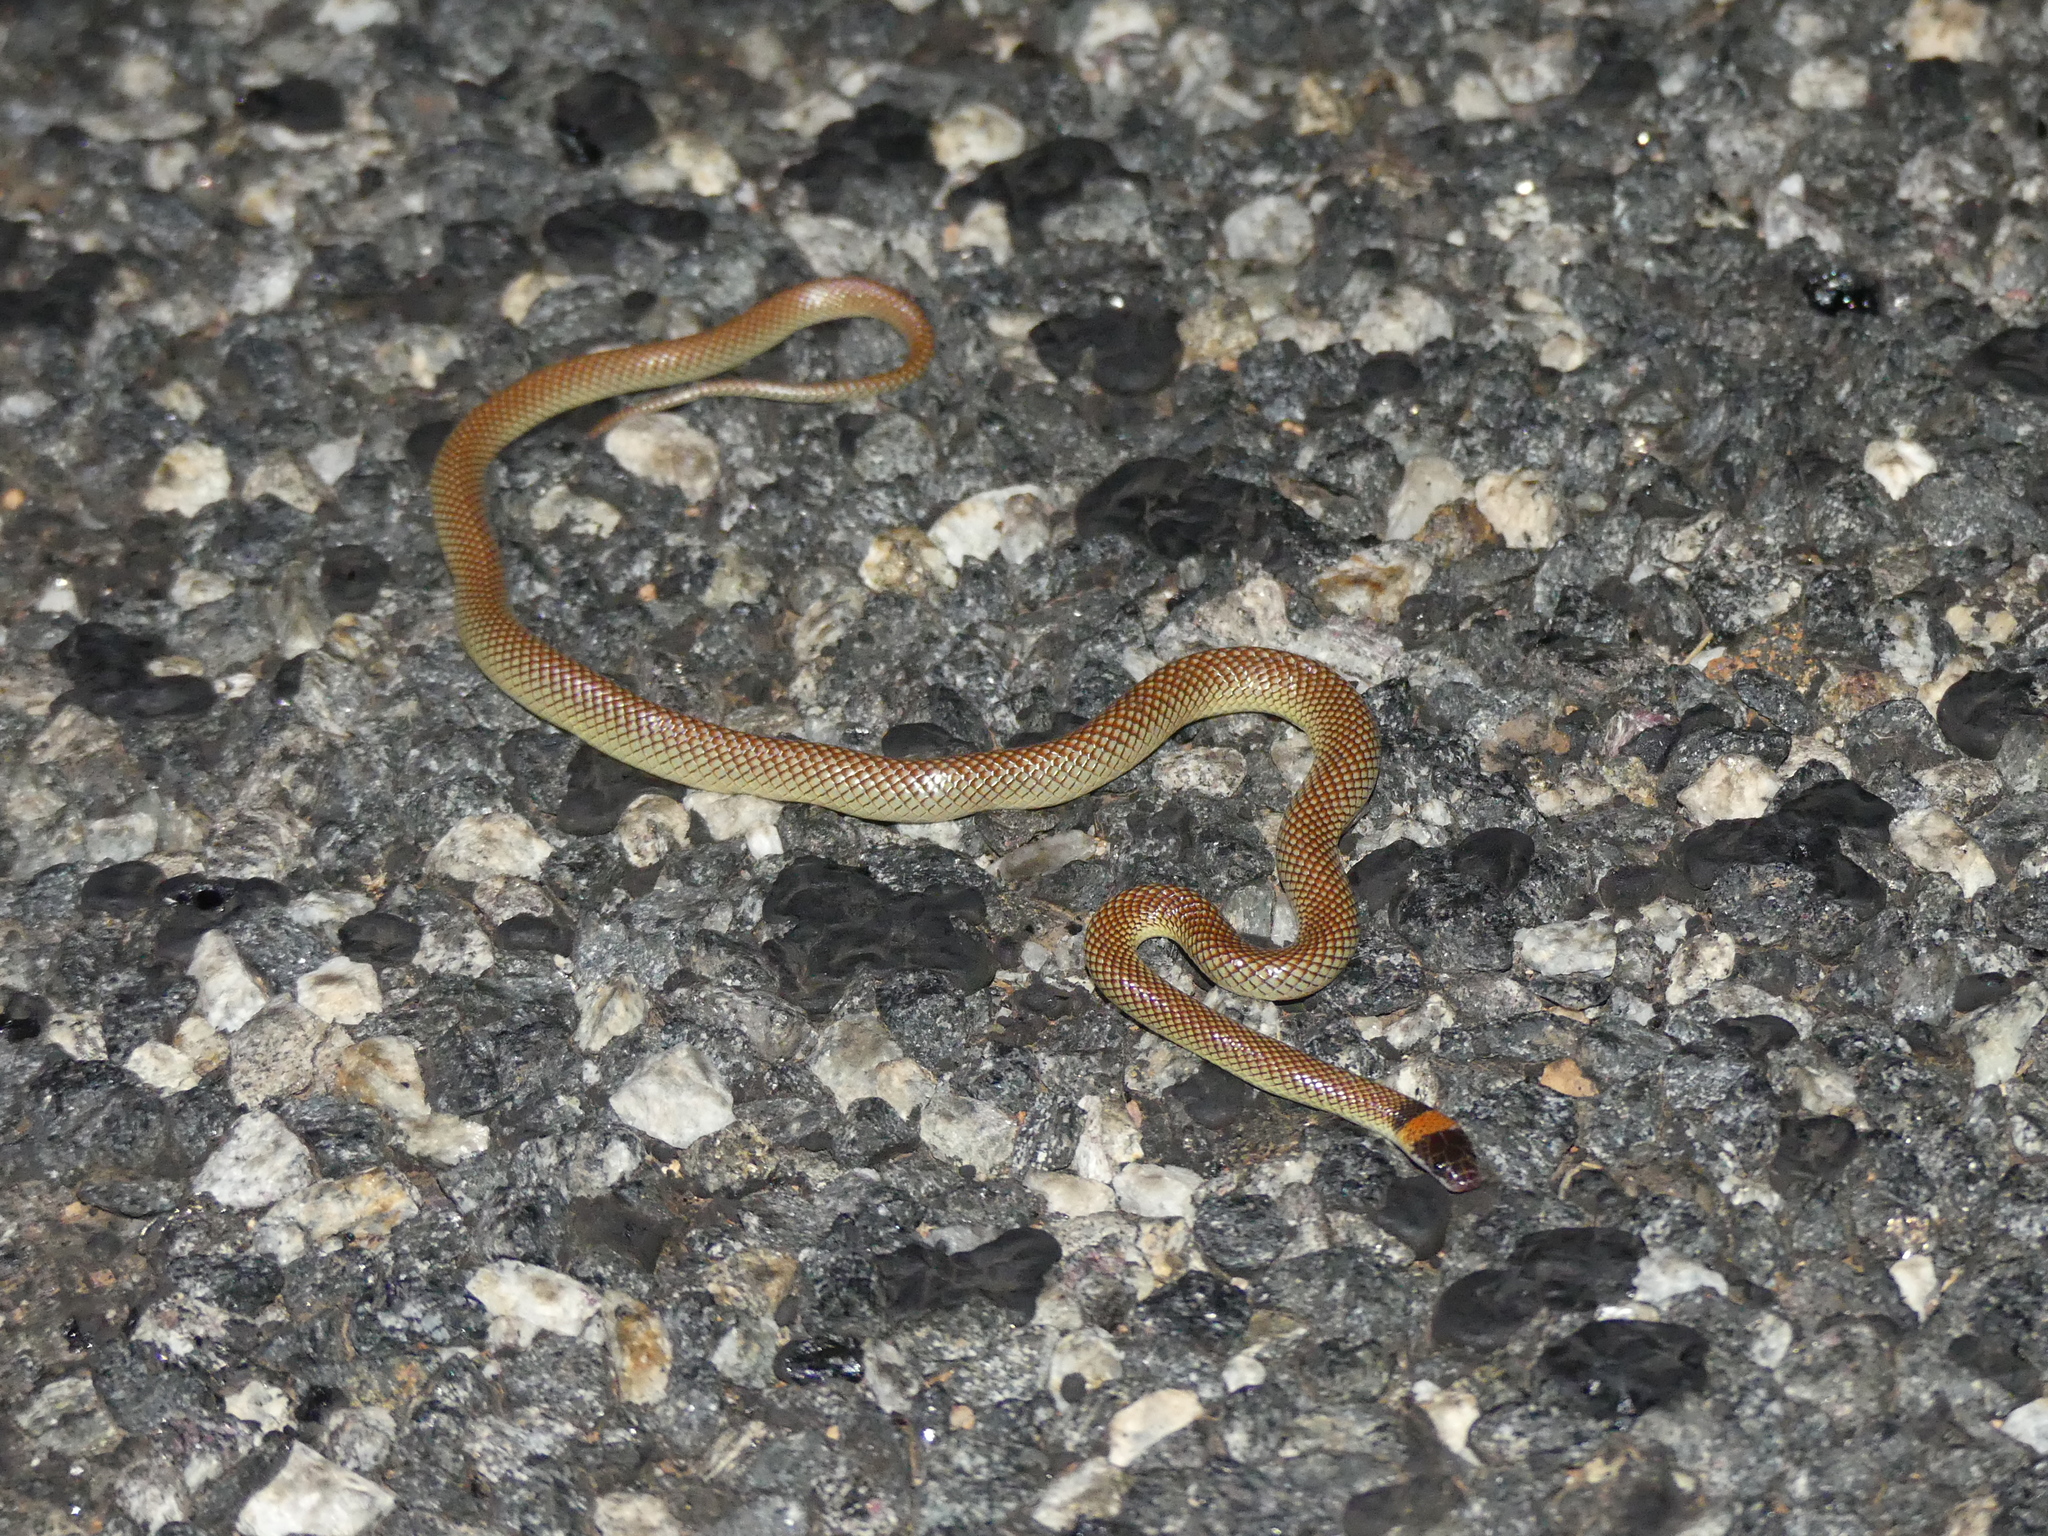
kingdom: Animalia
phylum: Chordata
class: Squamata
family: Elapidae
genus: Furina
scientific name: Furina ornata
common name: Orange-naped snake
